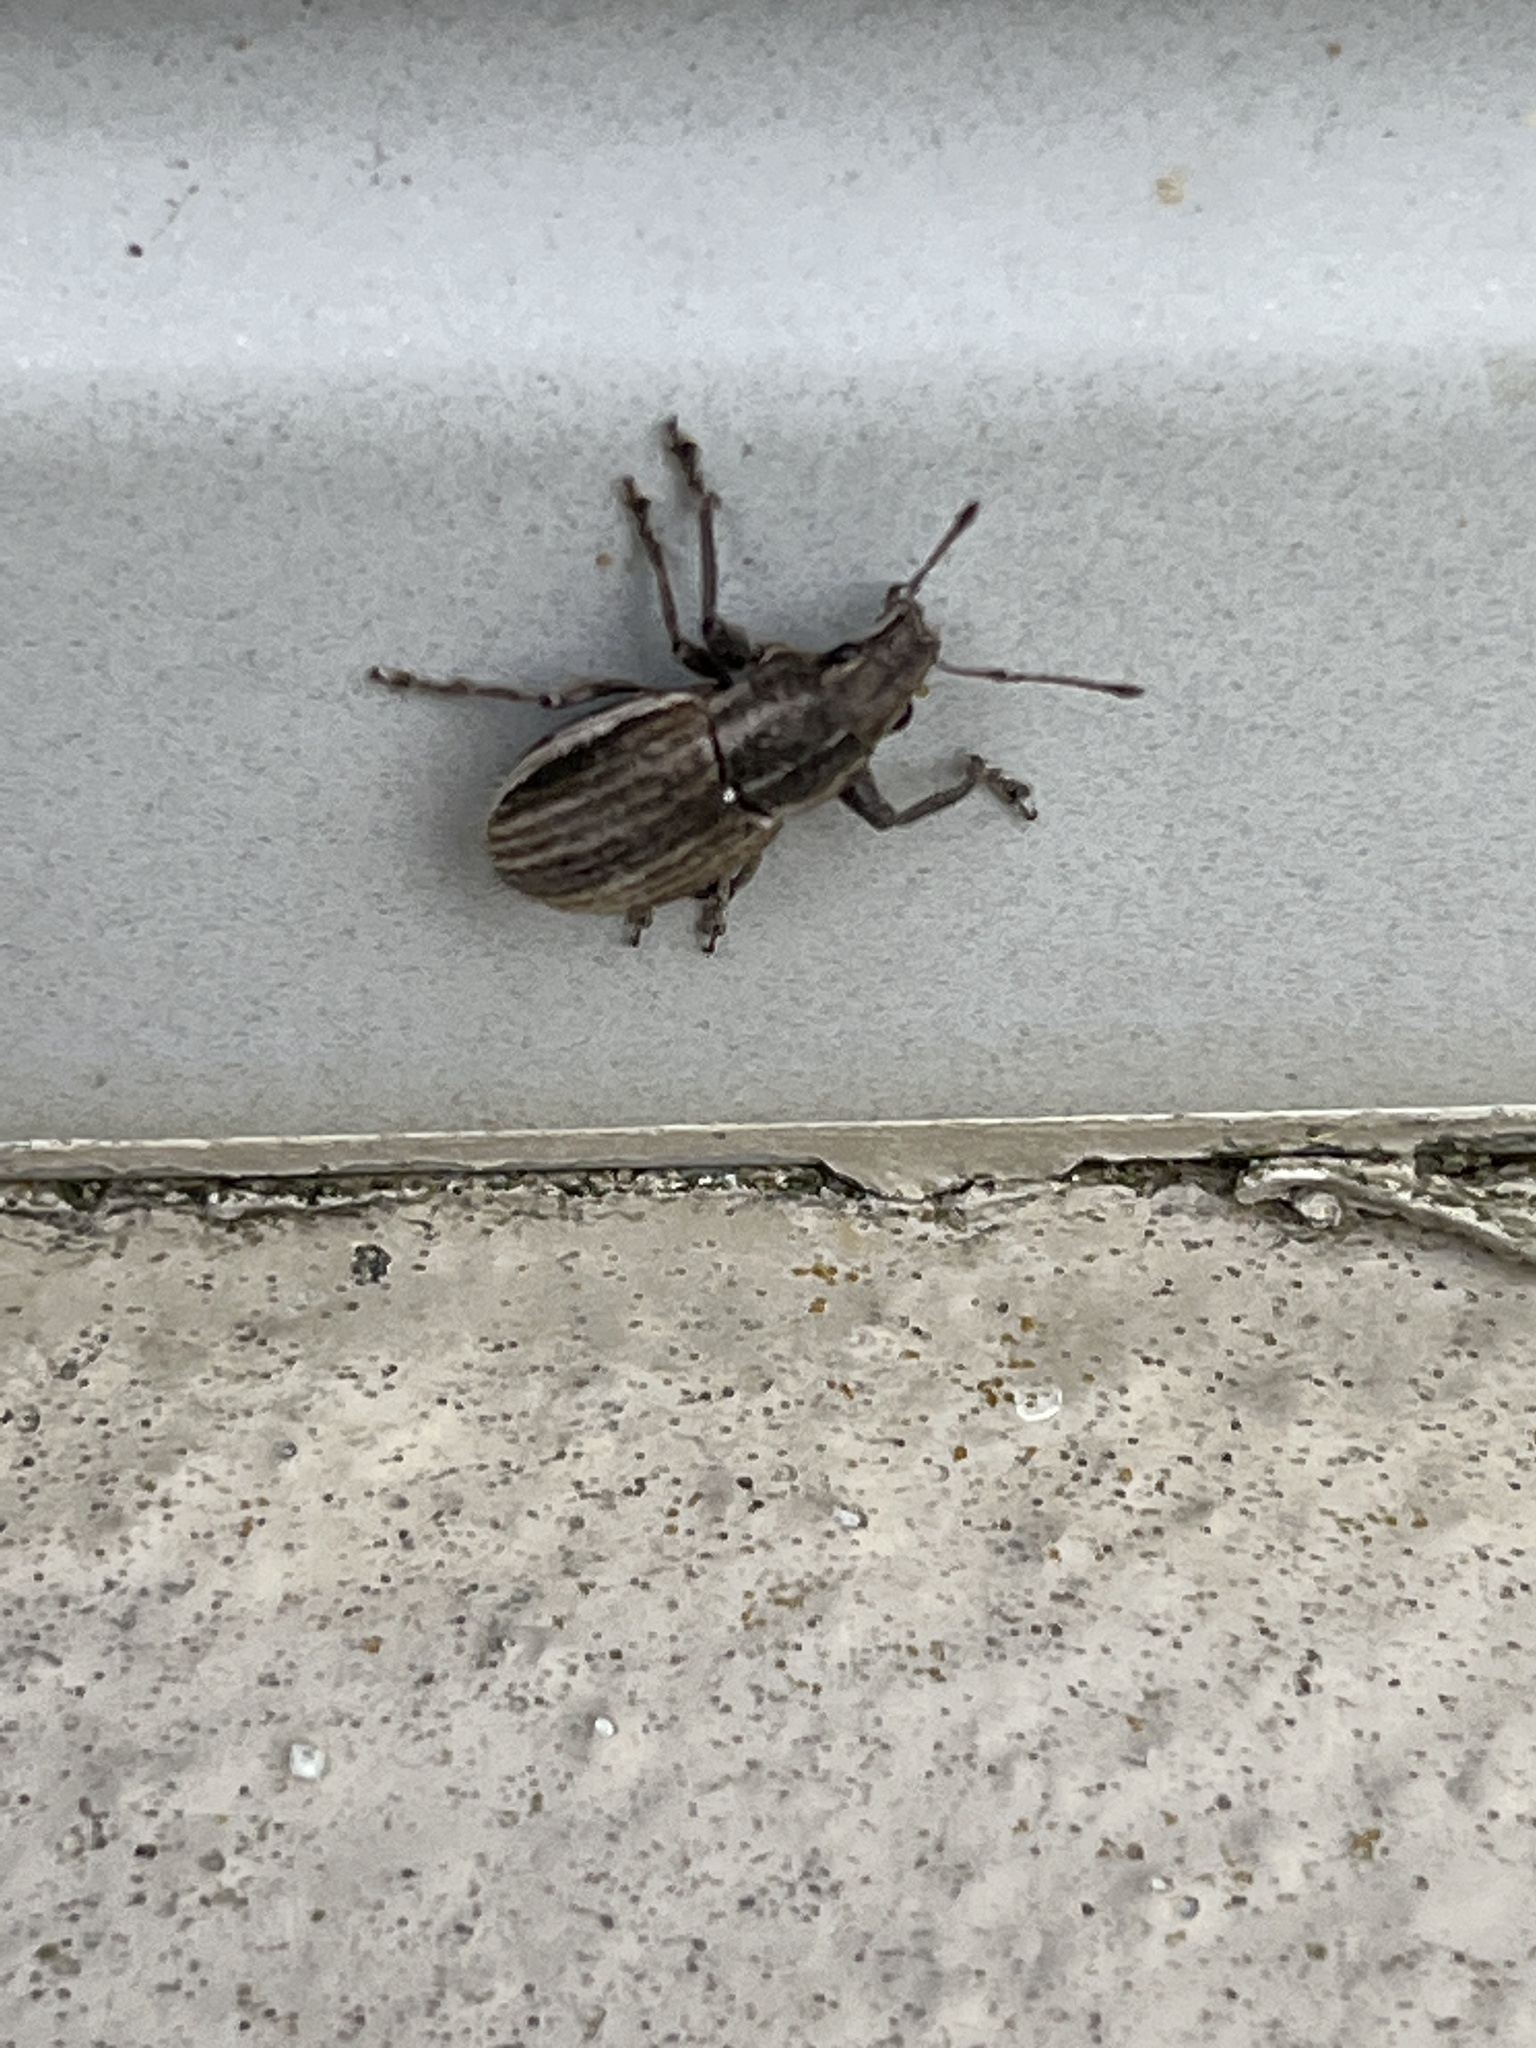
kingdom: Animalia
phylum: Arthropoda
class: Insecta
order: Coleoptera
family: Curculionidae
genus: Naupactus
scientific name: Naupactus leucoloma
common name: Whitefringed beetle
